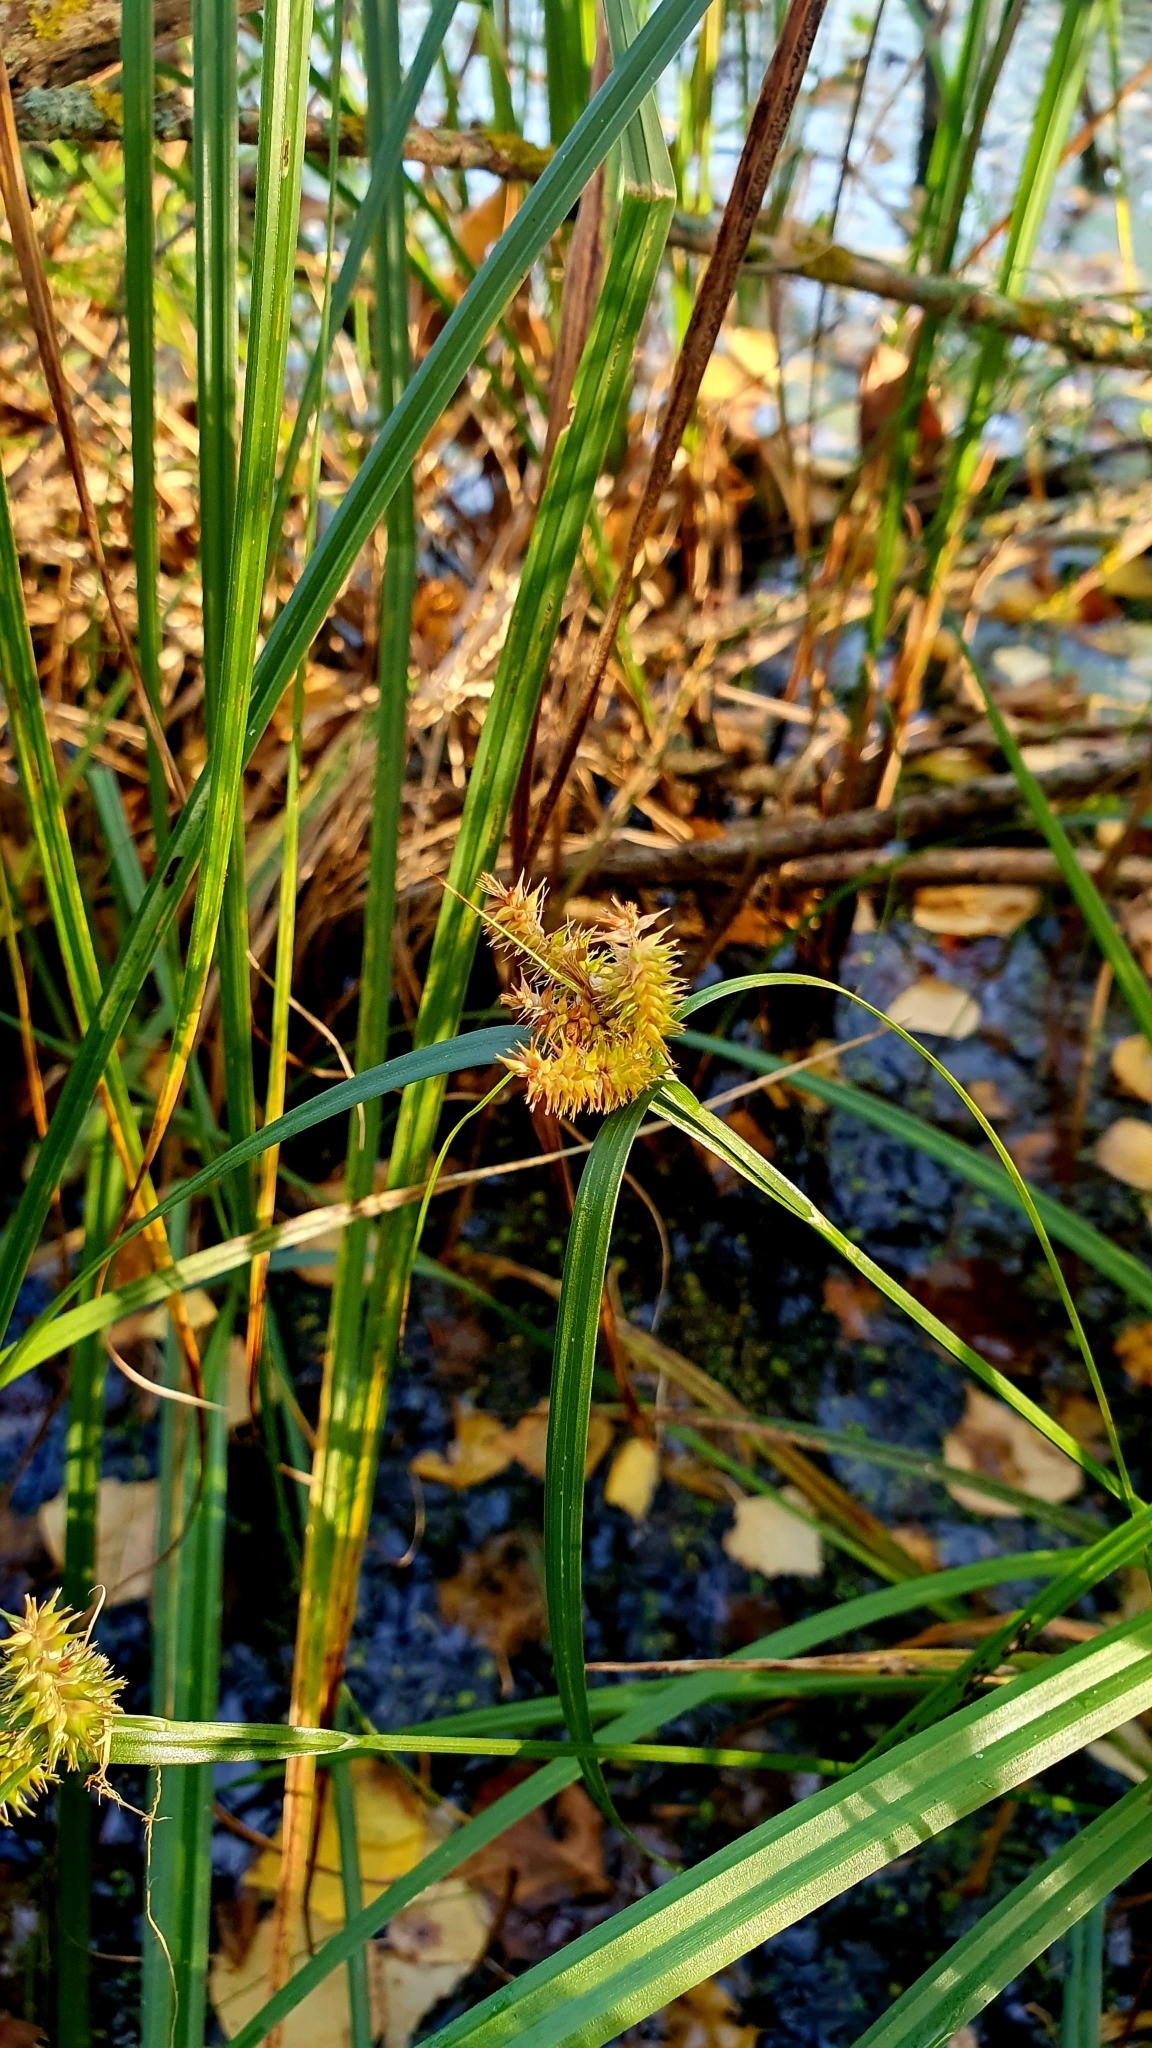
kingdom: Plantae
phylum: Tracheophyta
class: Liliopsida
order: Poales
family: Cyperaceae
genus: Carex
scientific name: Carex pseudocyperus
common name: Cyperus sedge
